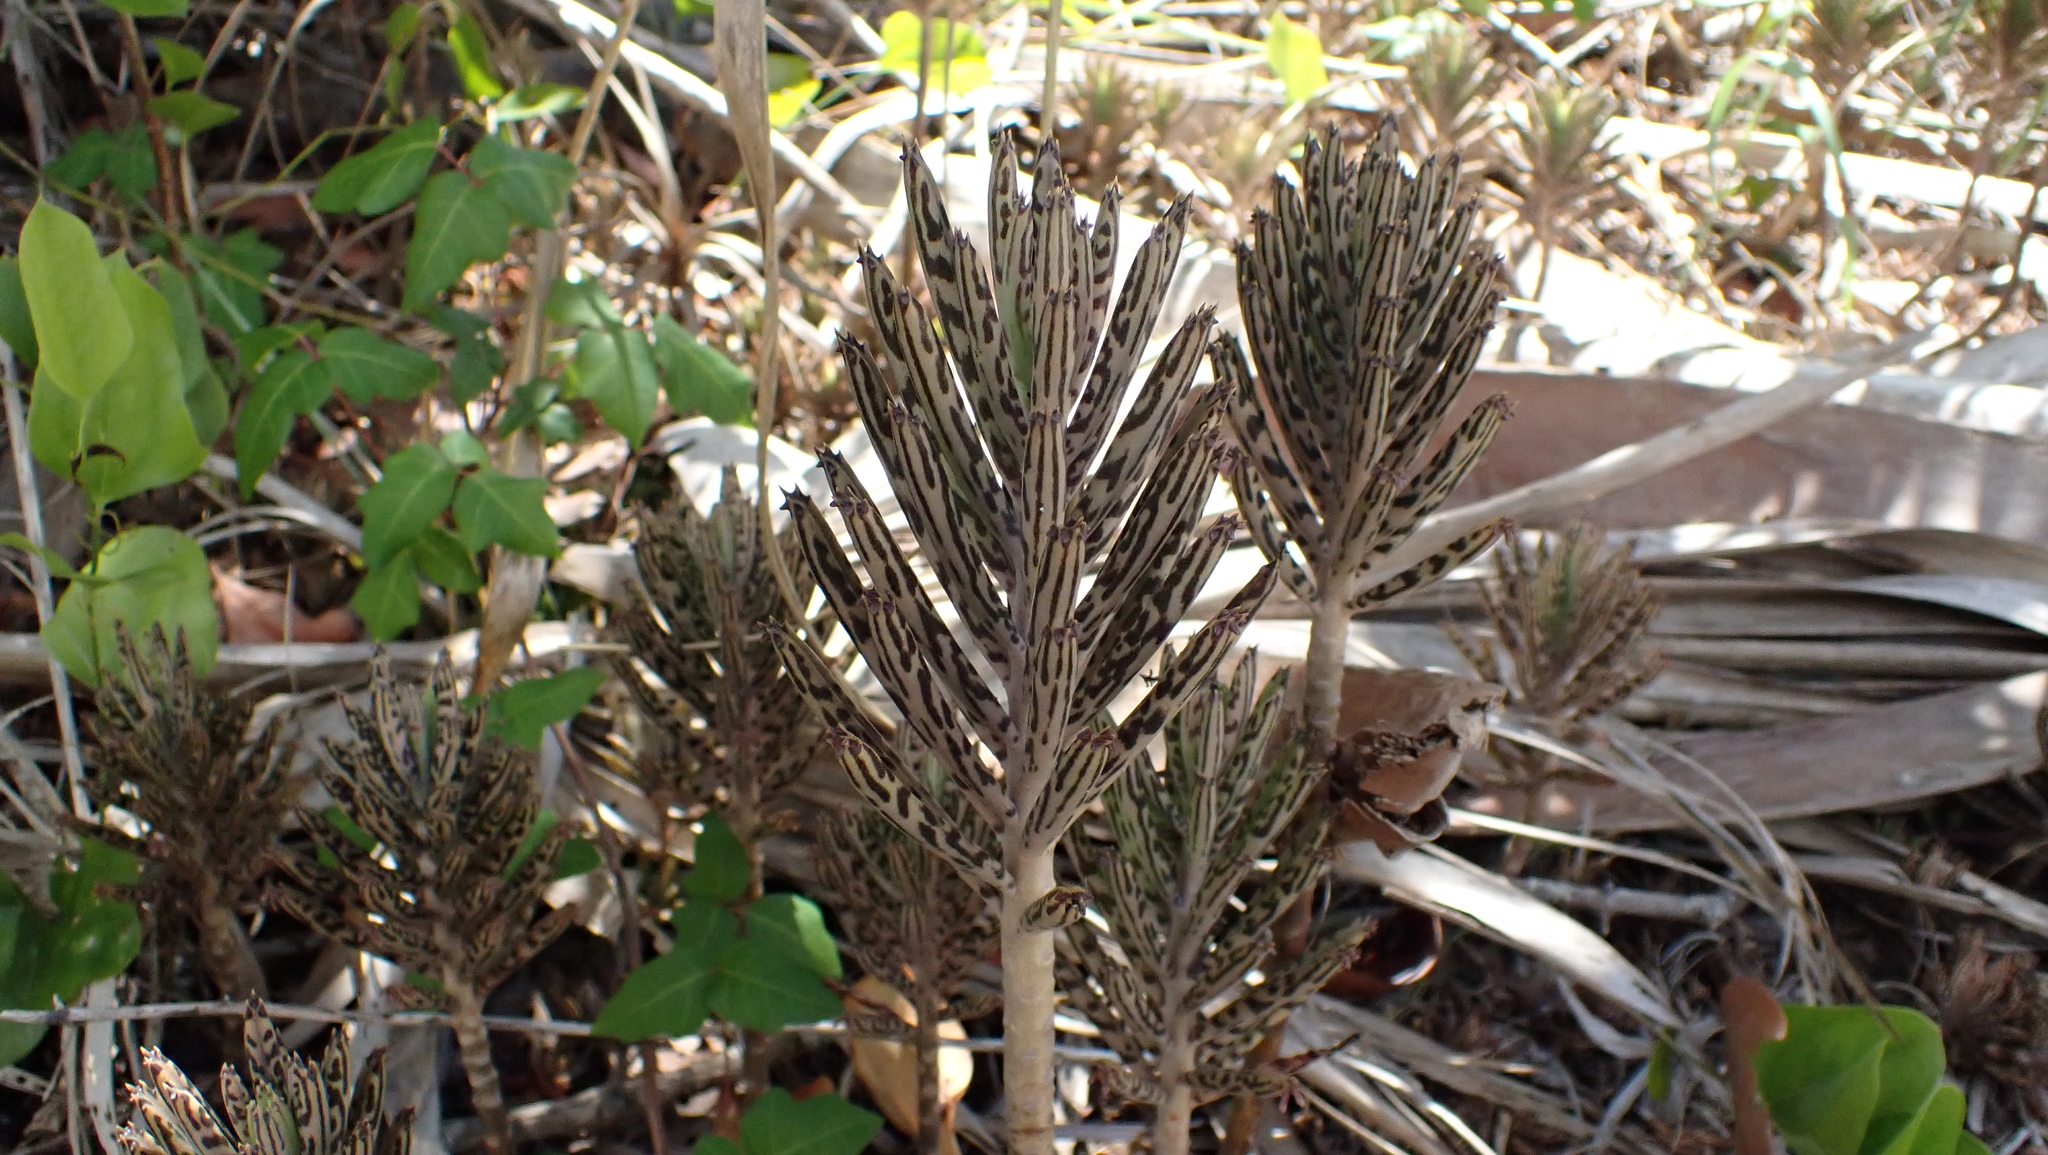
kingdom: Plantae
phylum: Tracheophyta
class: Magnoliopsida
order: Saxifragales
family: Crassulaceae
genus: Kalanchoe
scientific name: Kalanchoe delagoensis
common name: Chandelier plant
